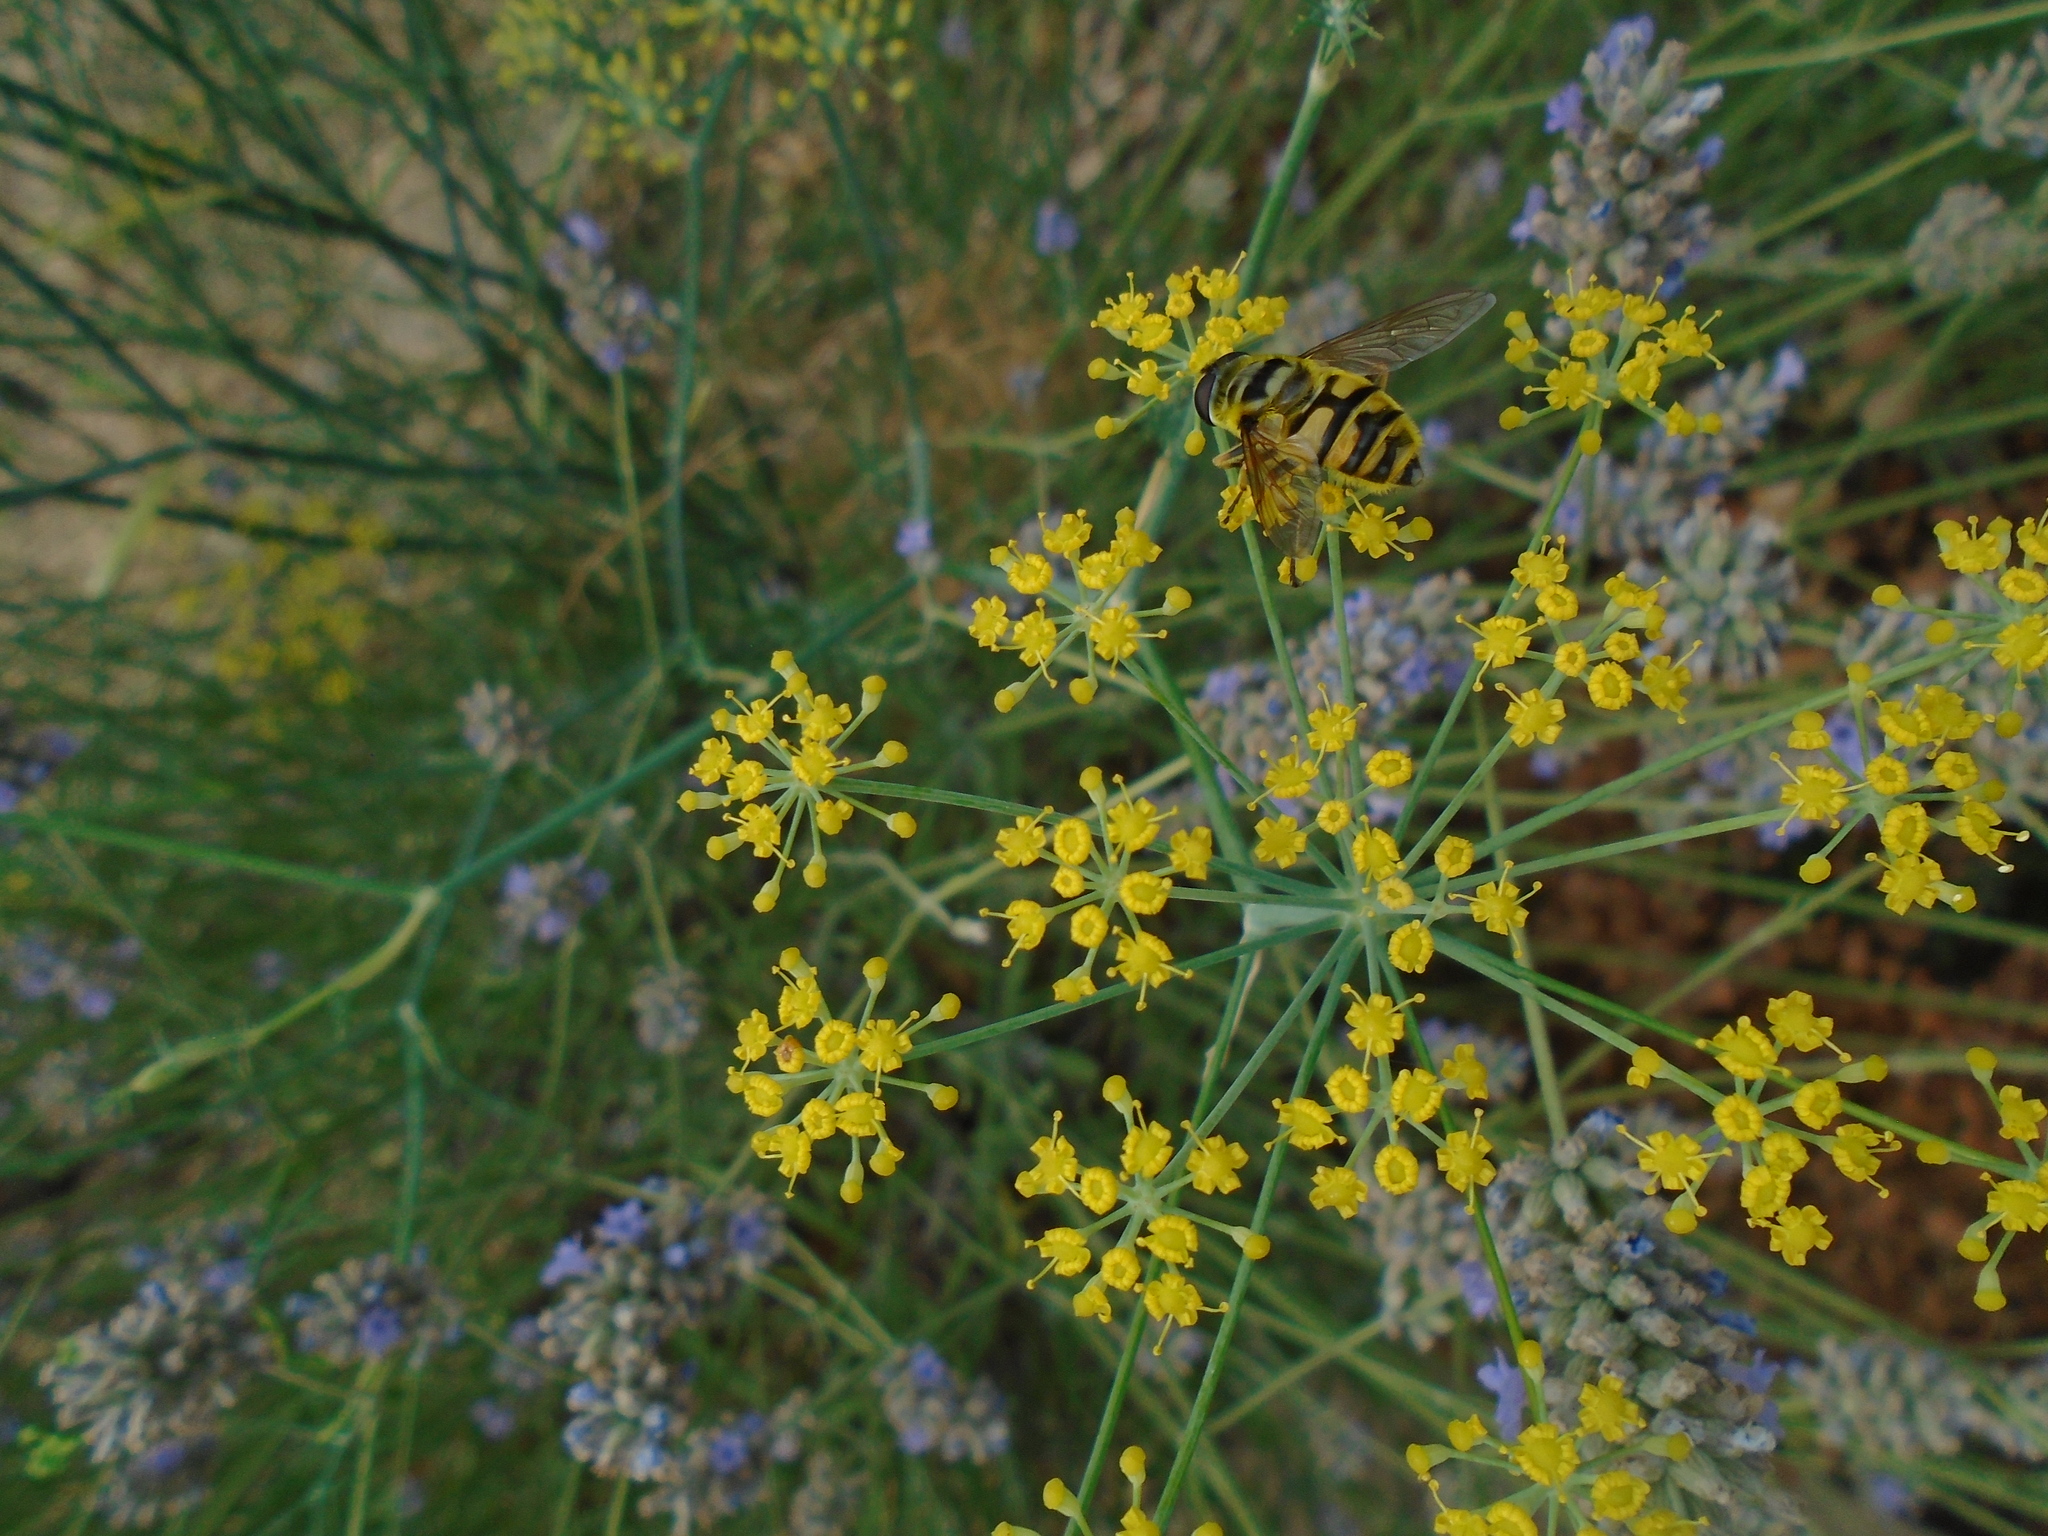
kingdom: Animalia
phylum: Arthropoda
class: Insecta
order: Diptera
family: Syrphidae
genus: Myathropa
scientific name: Myathropa florea
